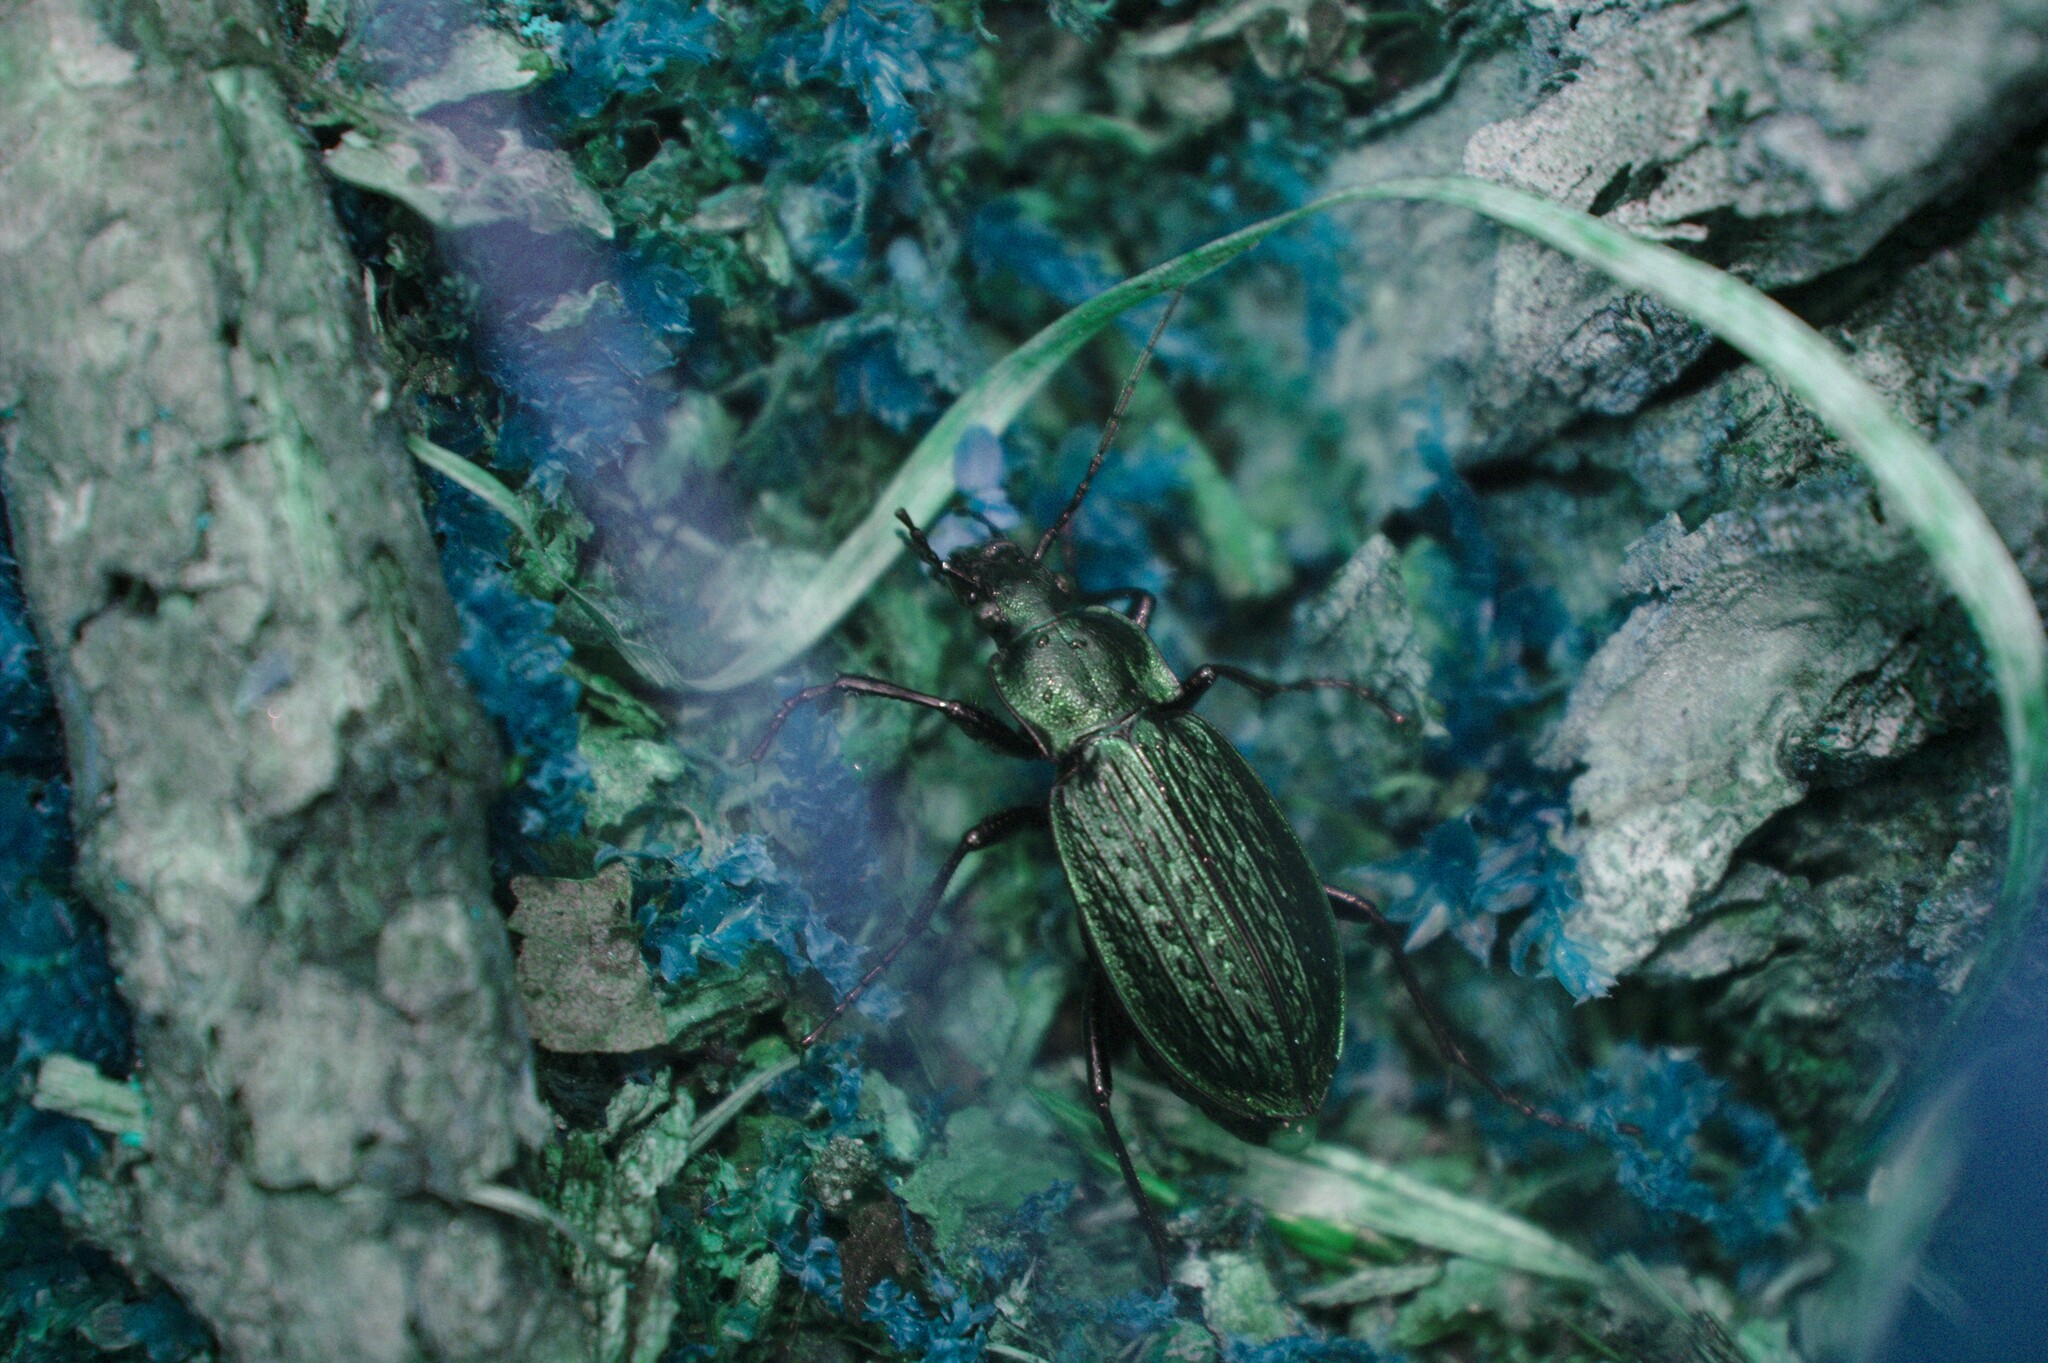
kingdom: Animalia
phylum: Arthropoda
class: Insecta
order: Coleoptera
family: Carabidae
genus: Carabus
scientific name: Carabus granulatus
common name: Granulate ground beetle
